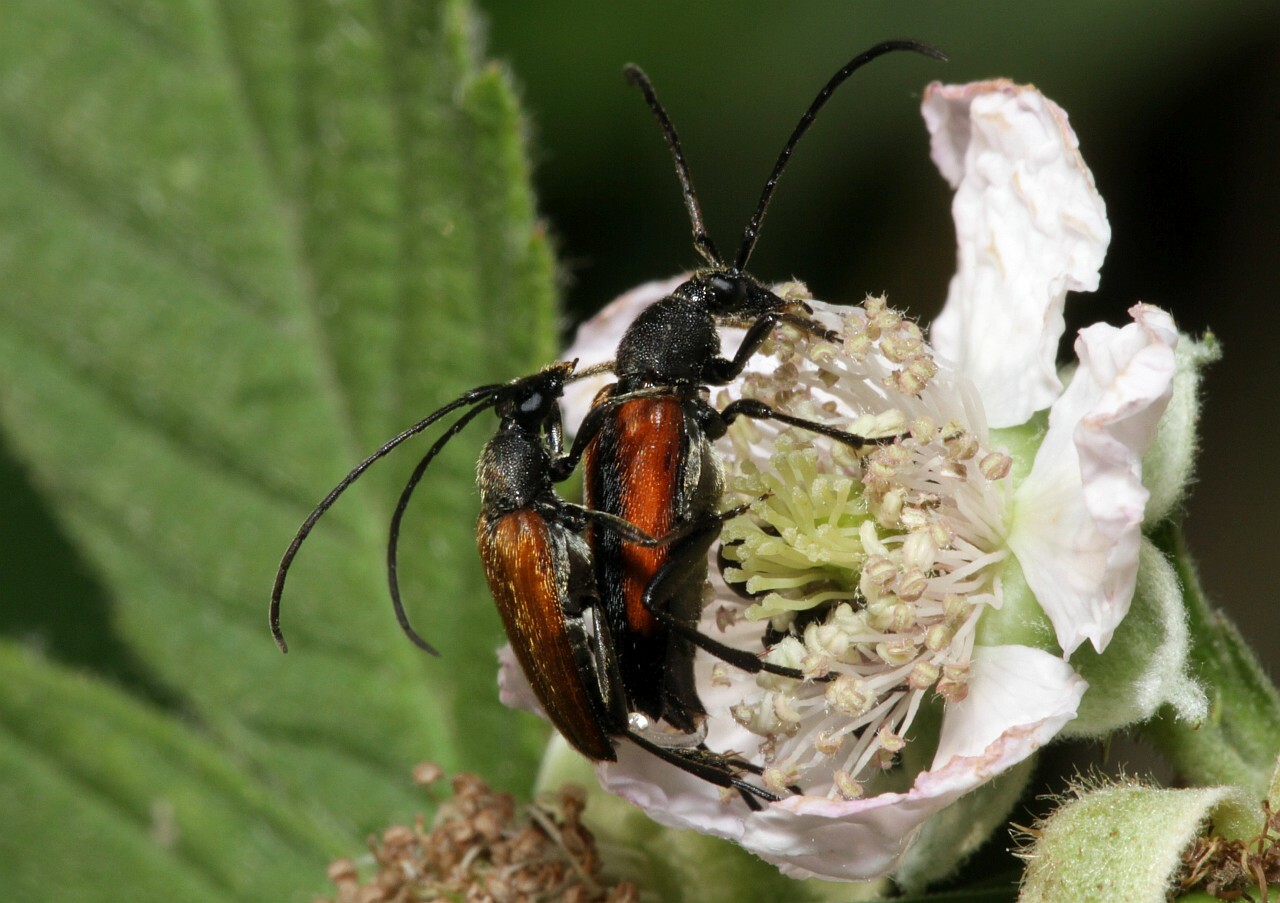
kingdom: Animalia
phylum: Arthropoda
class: Insecta
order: Coleoptera
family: Cerambycidae
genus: Stenurella
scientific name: Stenurella melanura
